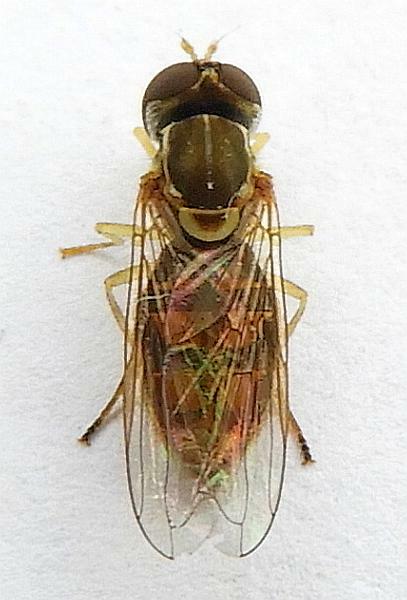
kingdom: Animalia
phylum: Arthropoda
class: Insecta
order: Diptera
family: Syrphidae
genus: Toxomerus
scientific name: Toxomerus marginatus
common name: Syrphid fly
